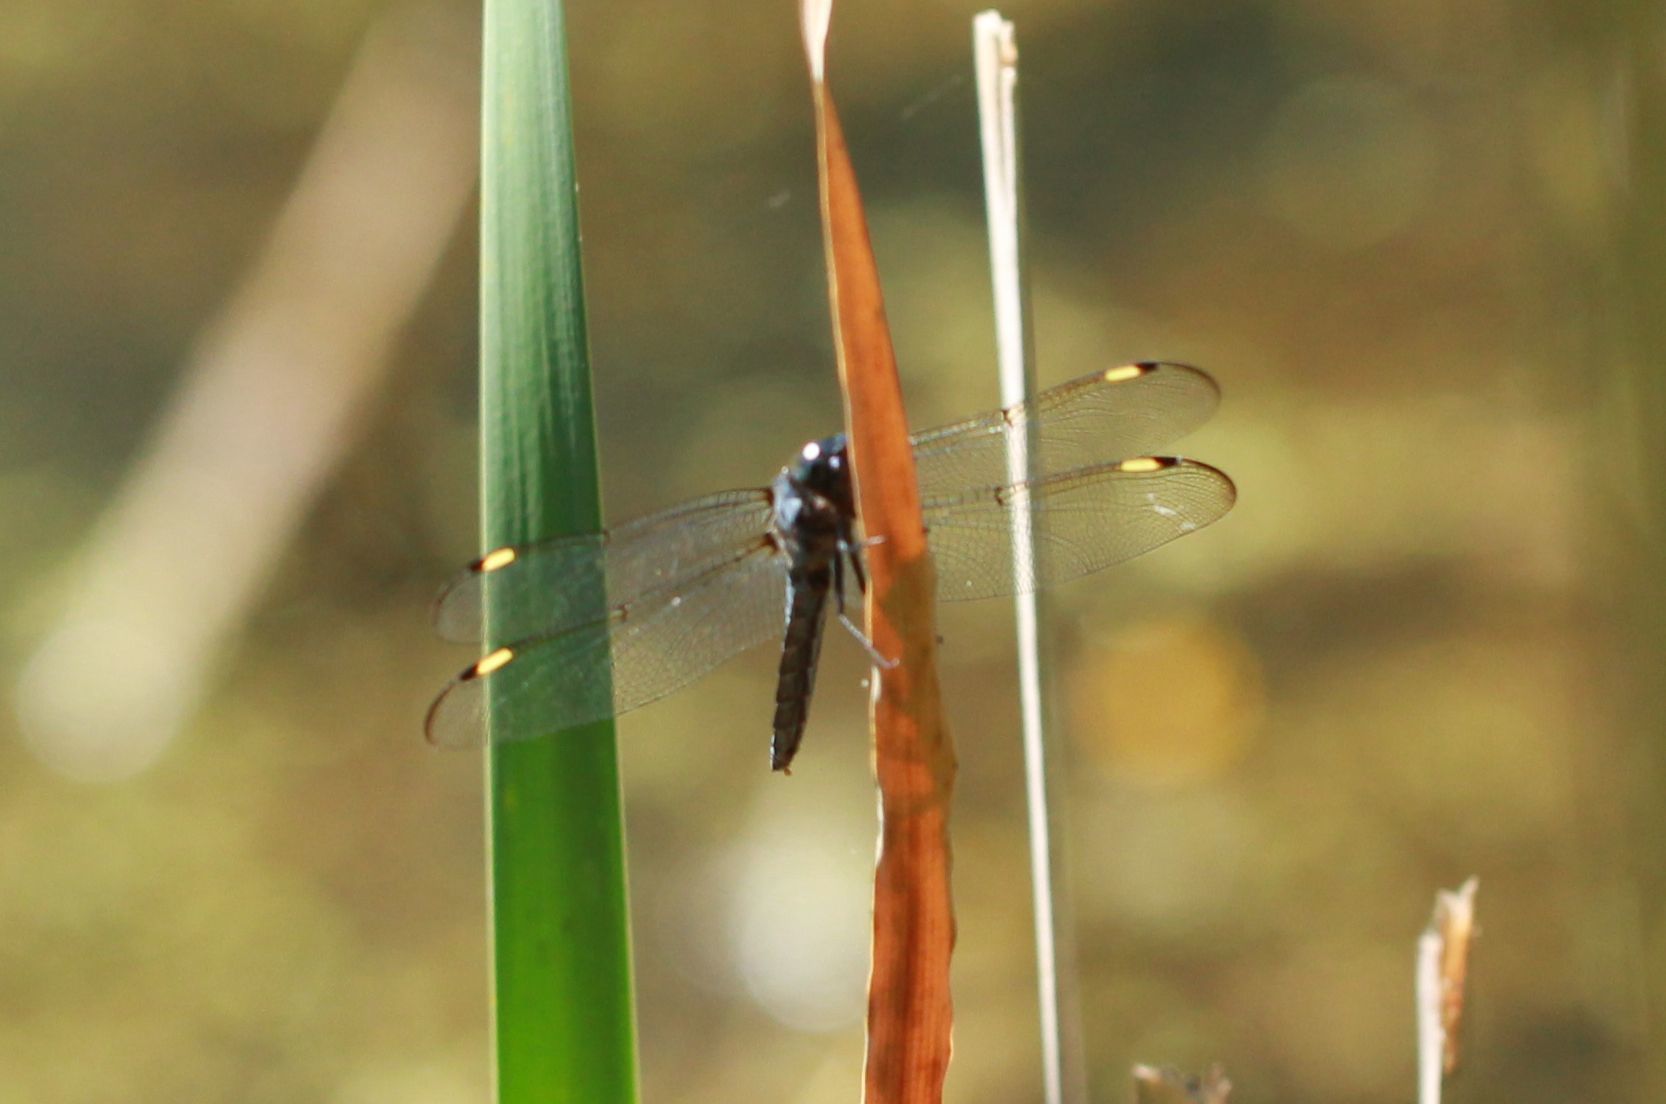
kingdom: Animalia
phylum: Arthropoda
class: Insecta
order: Odonata
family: Libellulidae
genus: Libellula
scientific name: Libellula cyanea
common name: Spangled skimmer
